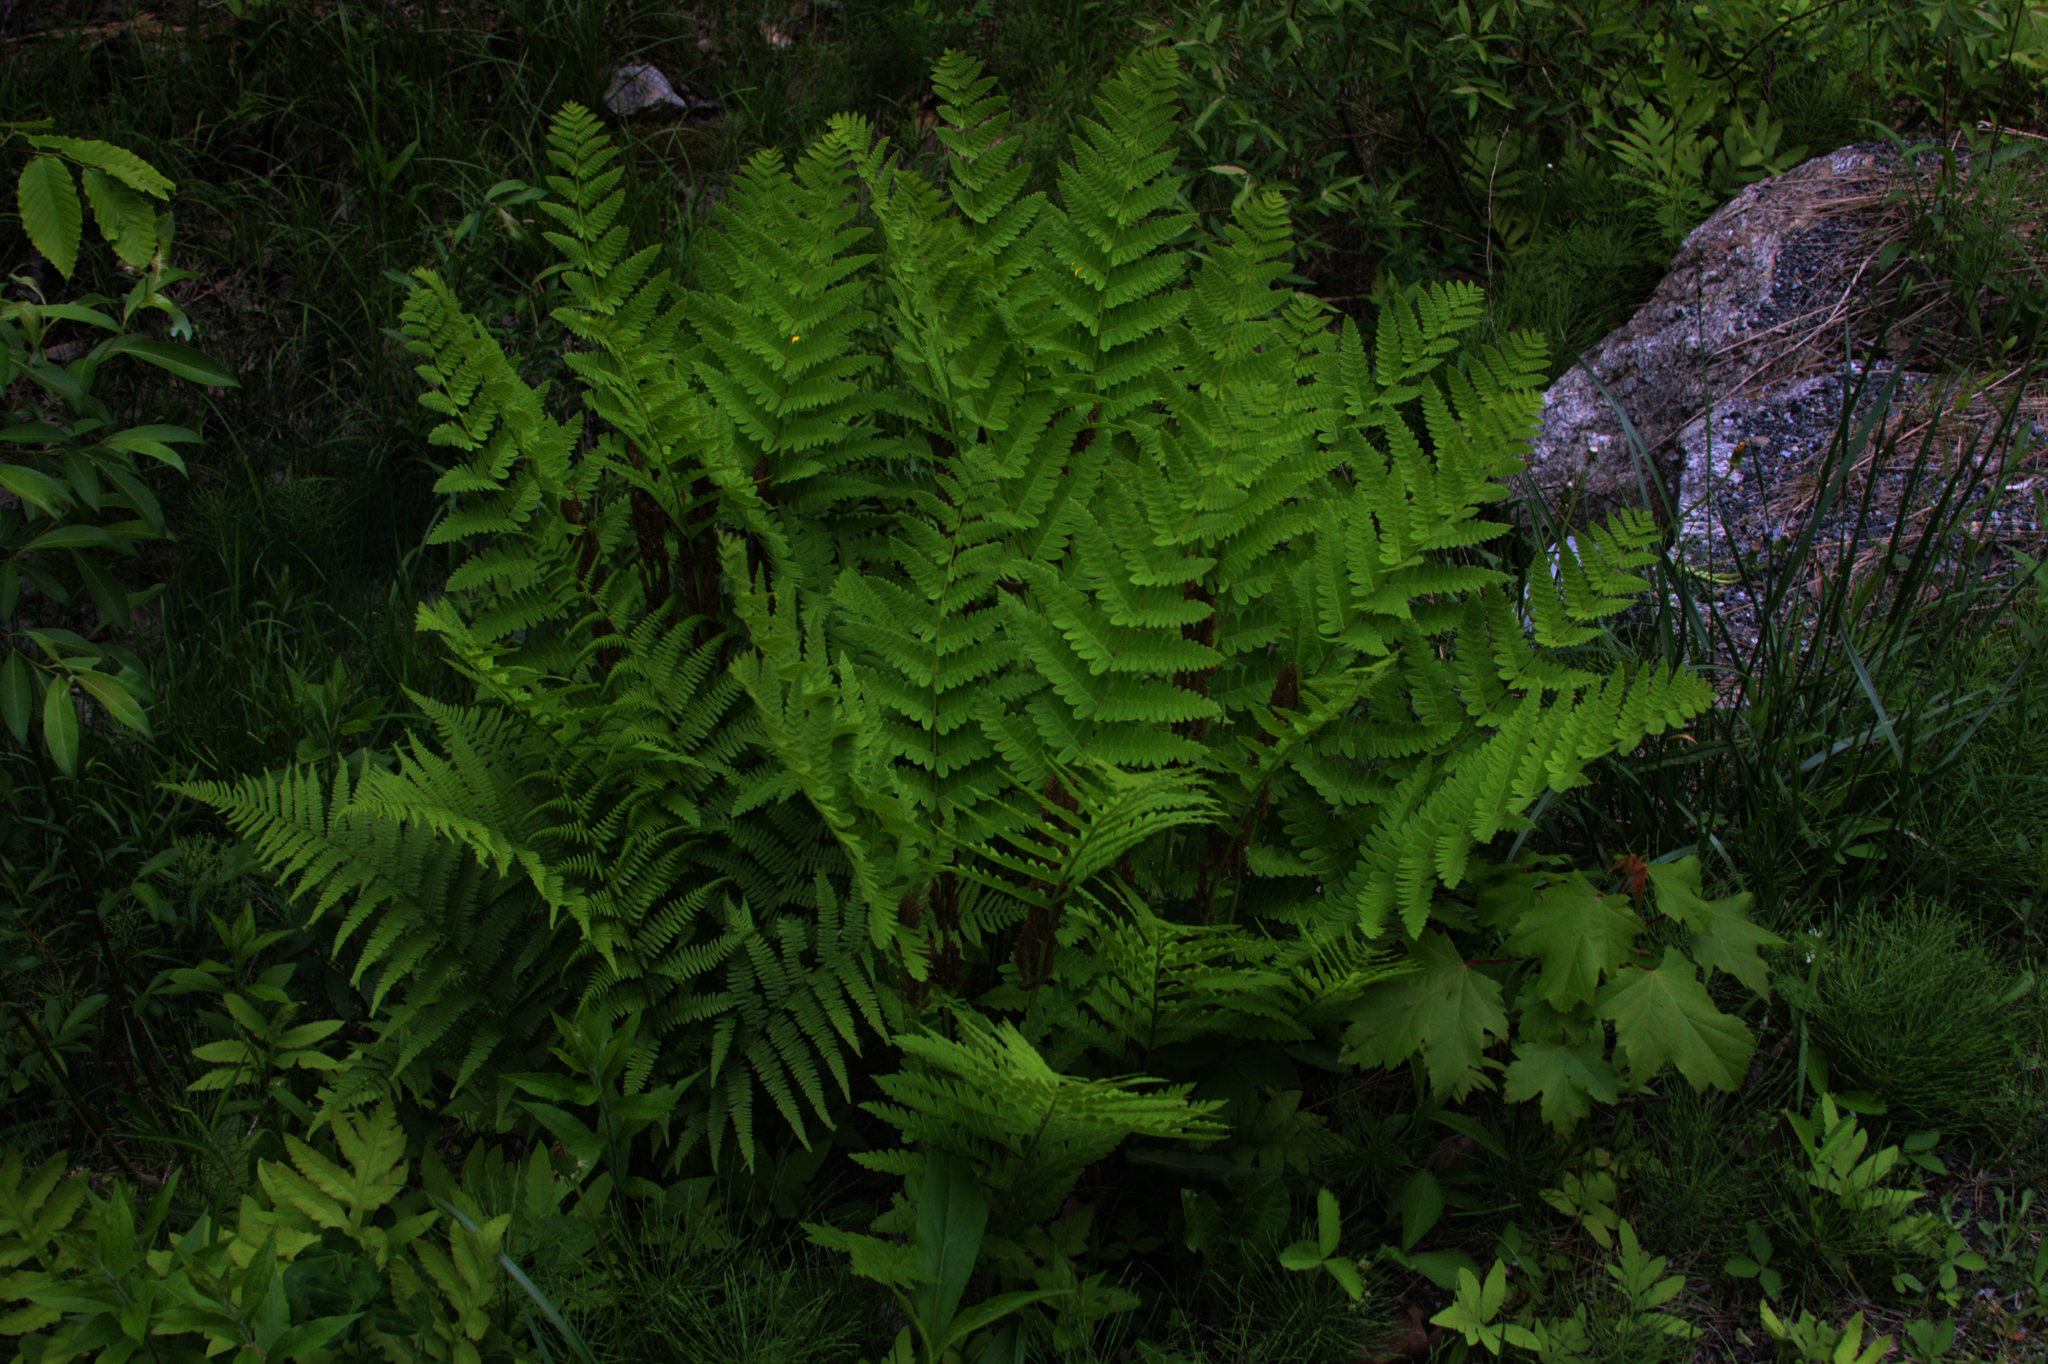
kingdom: Plantae
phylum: Tracheophyta
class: Polypodiopsida
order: Osmundales
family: Osmundaceae
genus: Claytosmunda
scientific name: Claytosmunda claytoniana
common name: Clayton's fern
